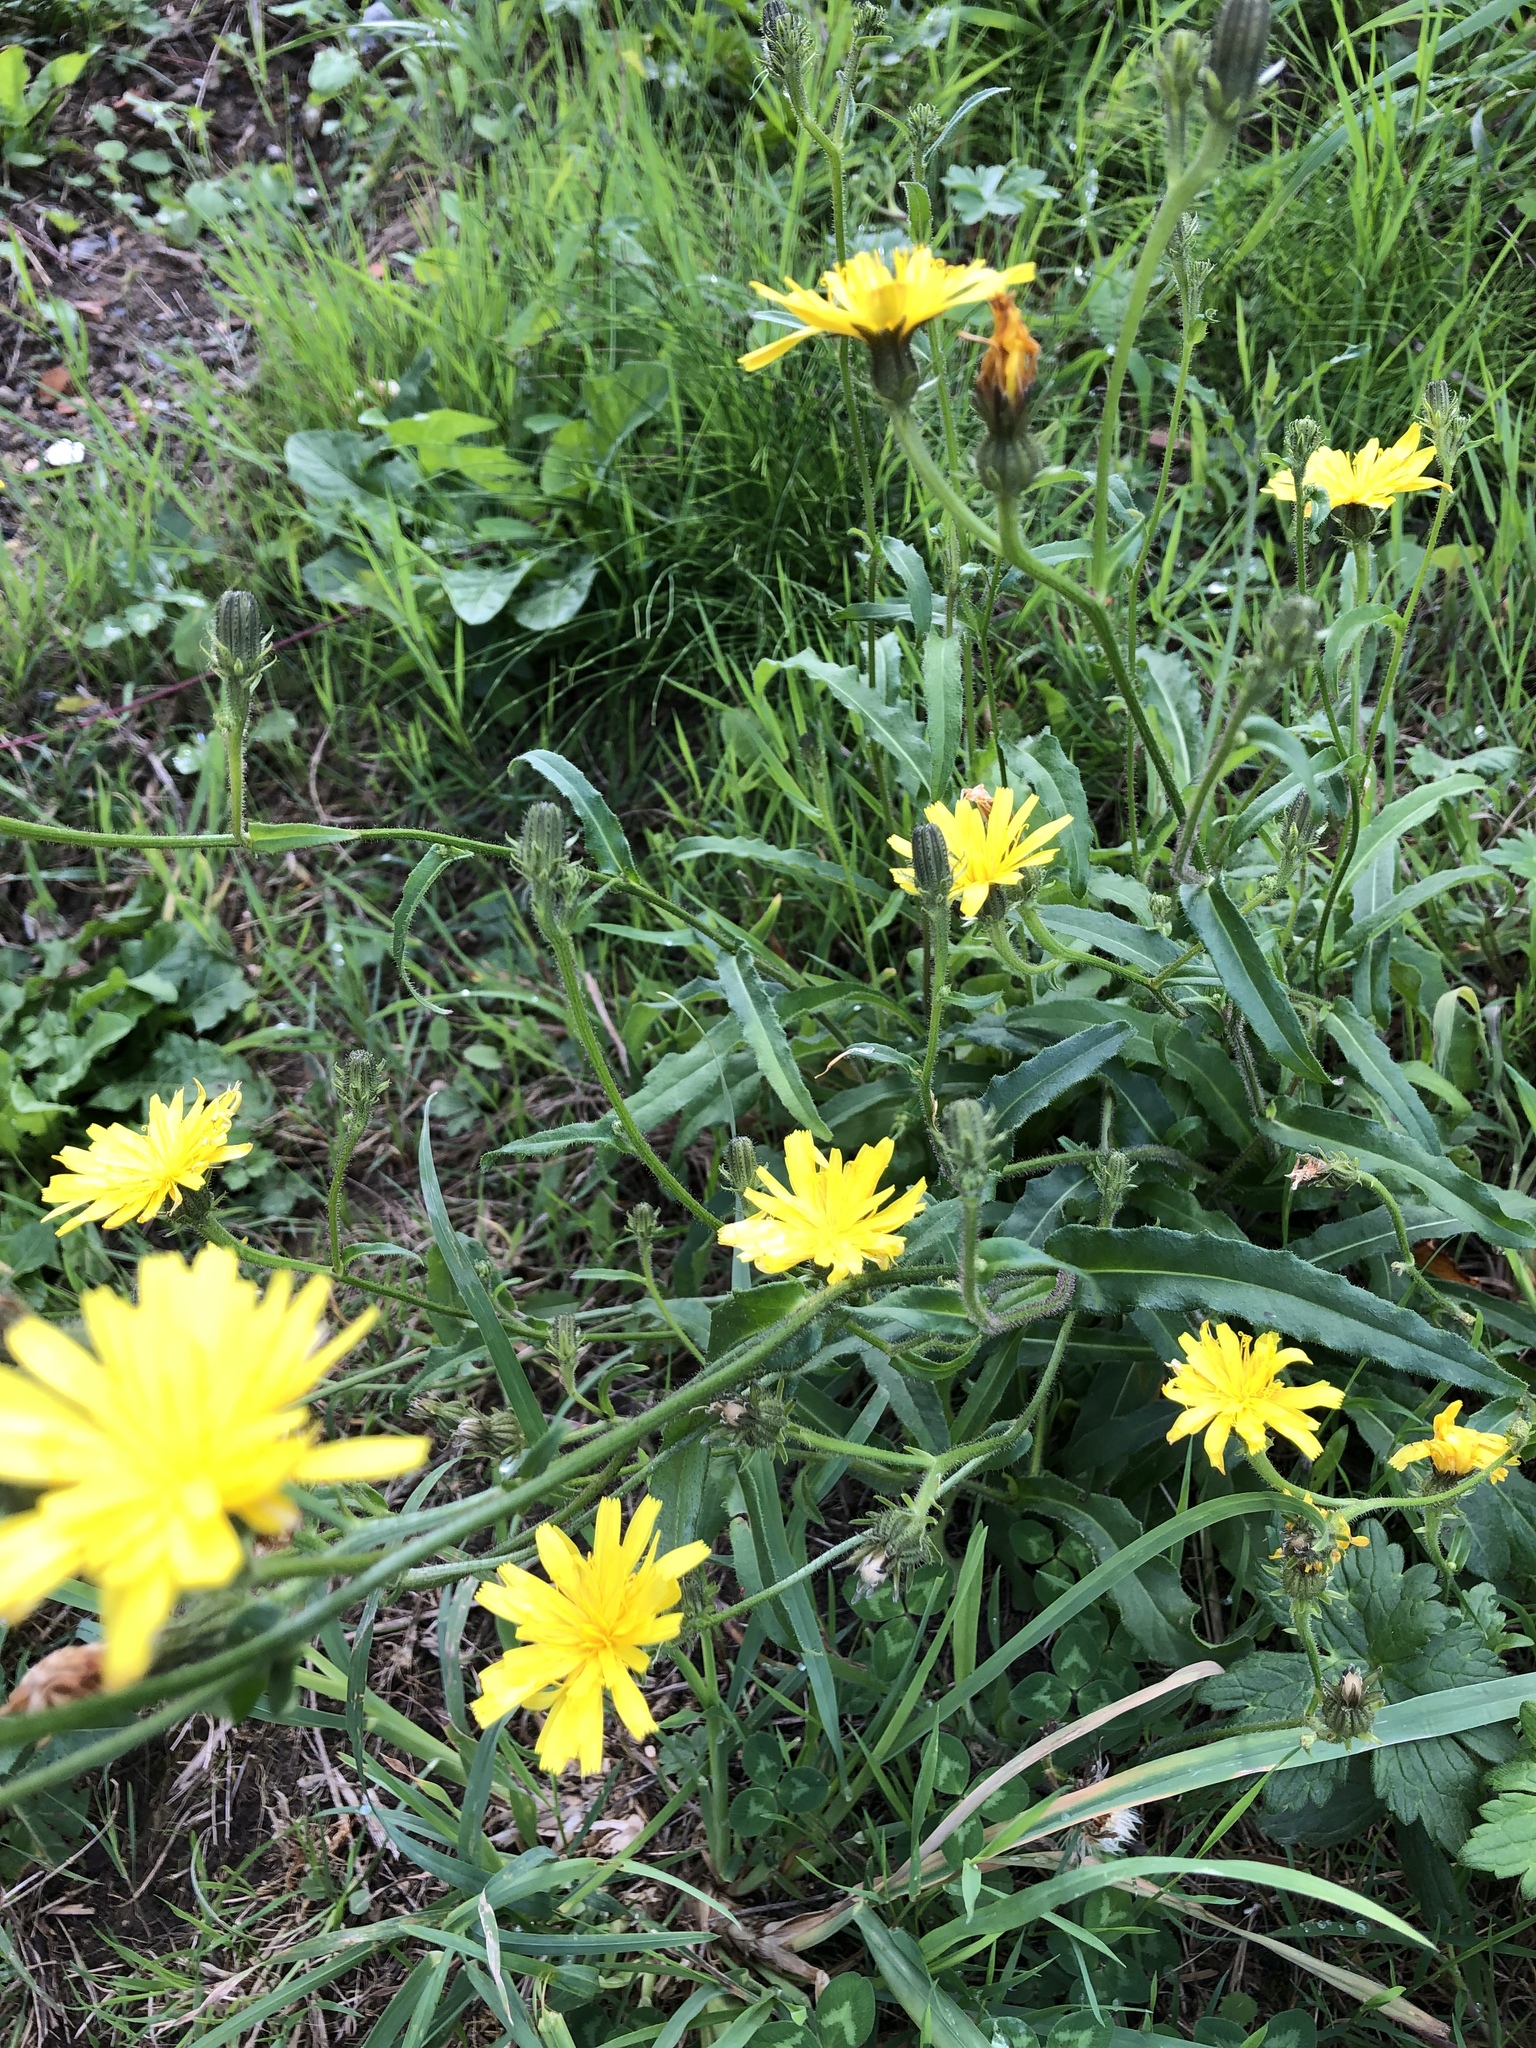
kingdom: Plantae
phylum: Tracheophyta
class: Magnoliopsida
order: Asterales
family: Asteraceae
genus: Hypochaeris
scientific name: Hypochaeris radicata
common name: Flatweed
